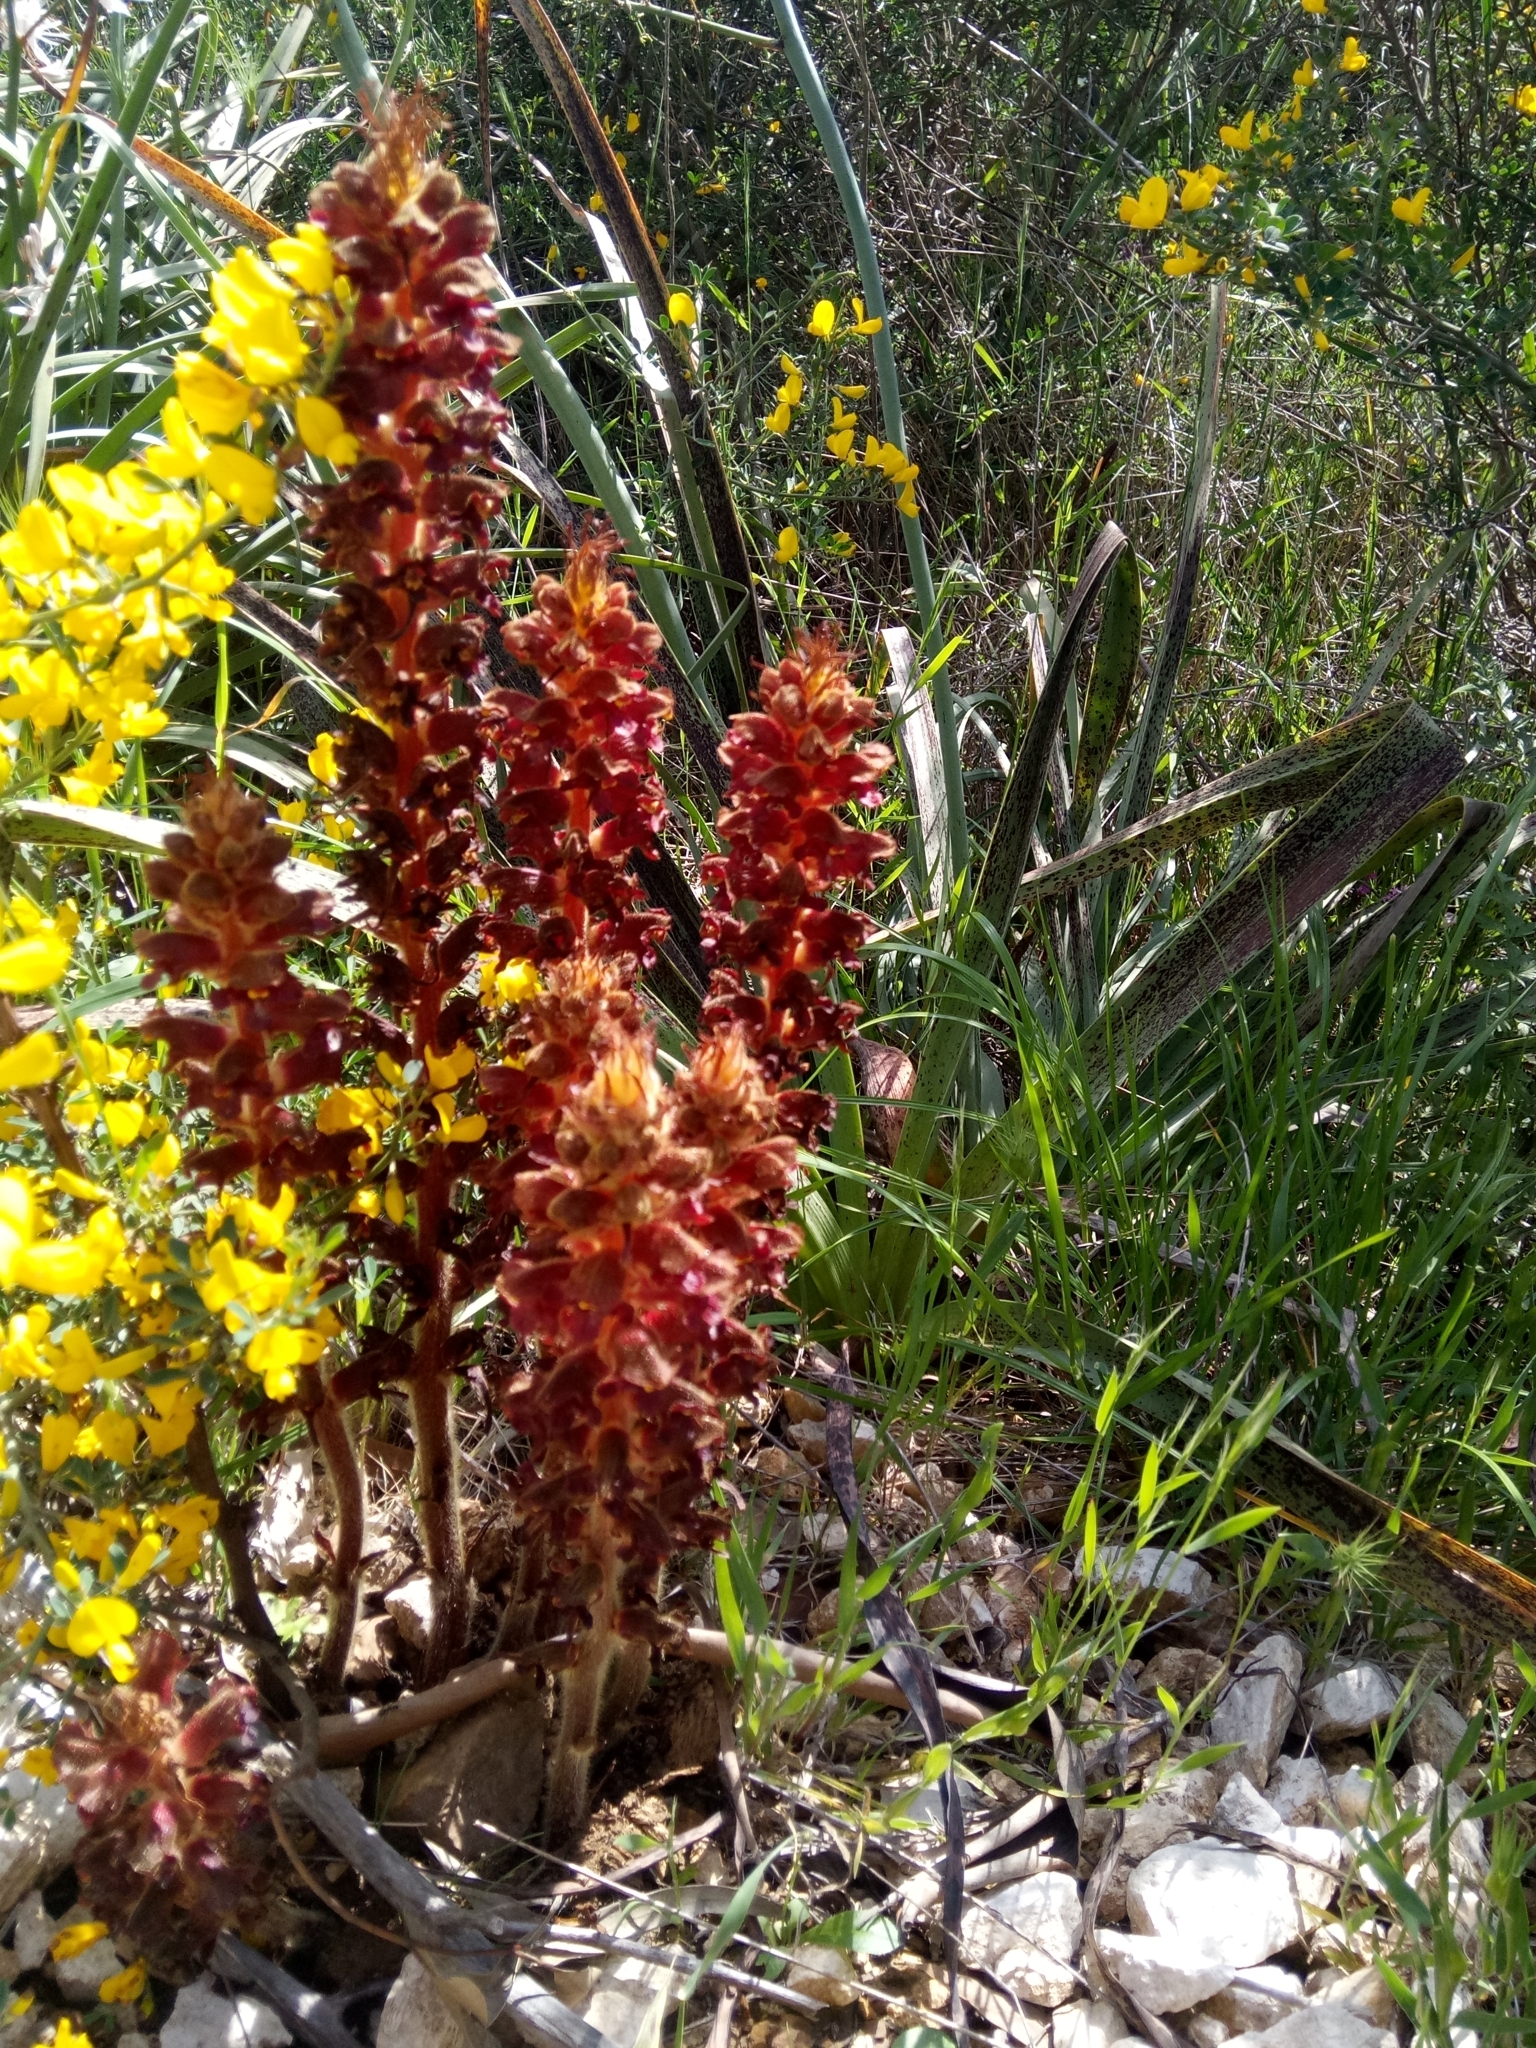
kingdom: Plantae
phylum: Tracheophyta
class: Magnoliopsida
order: Lamiales
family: Orobanchaceae
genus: Orobanche
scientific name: Orobanche variegata
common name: Variegated broomrape
